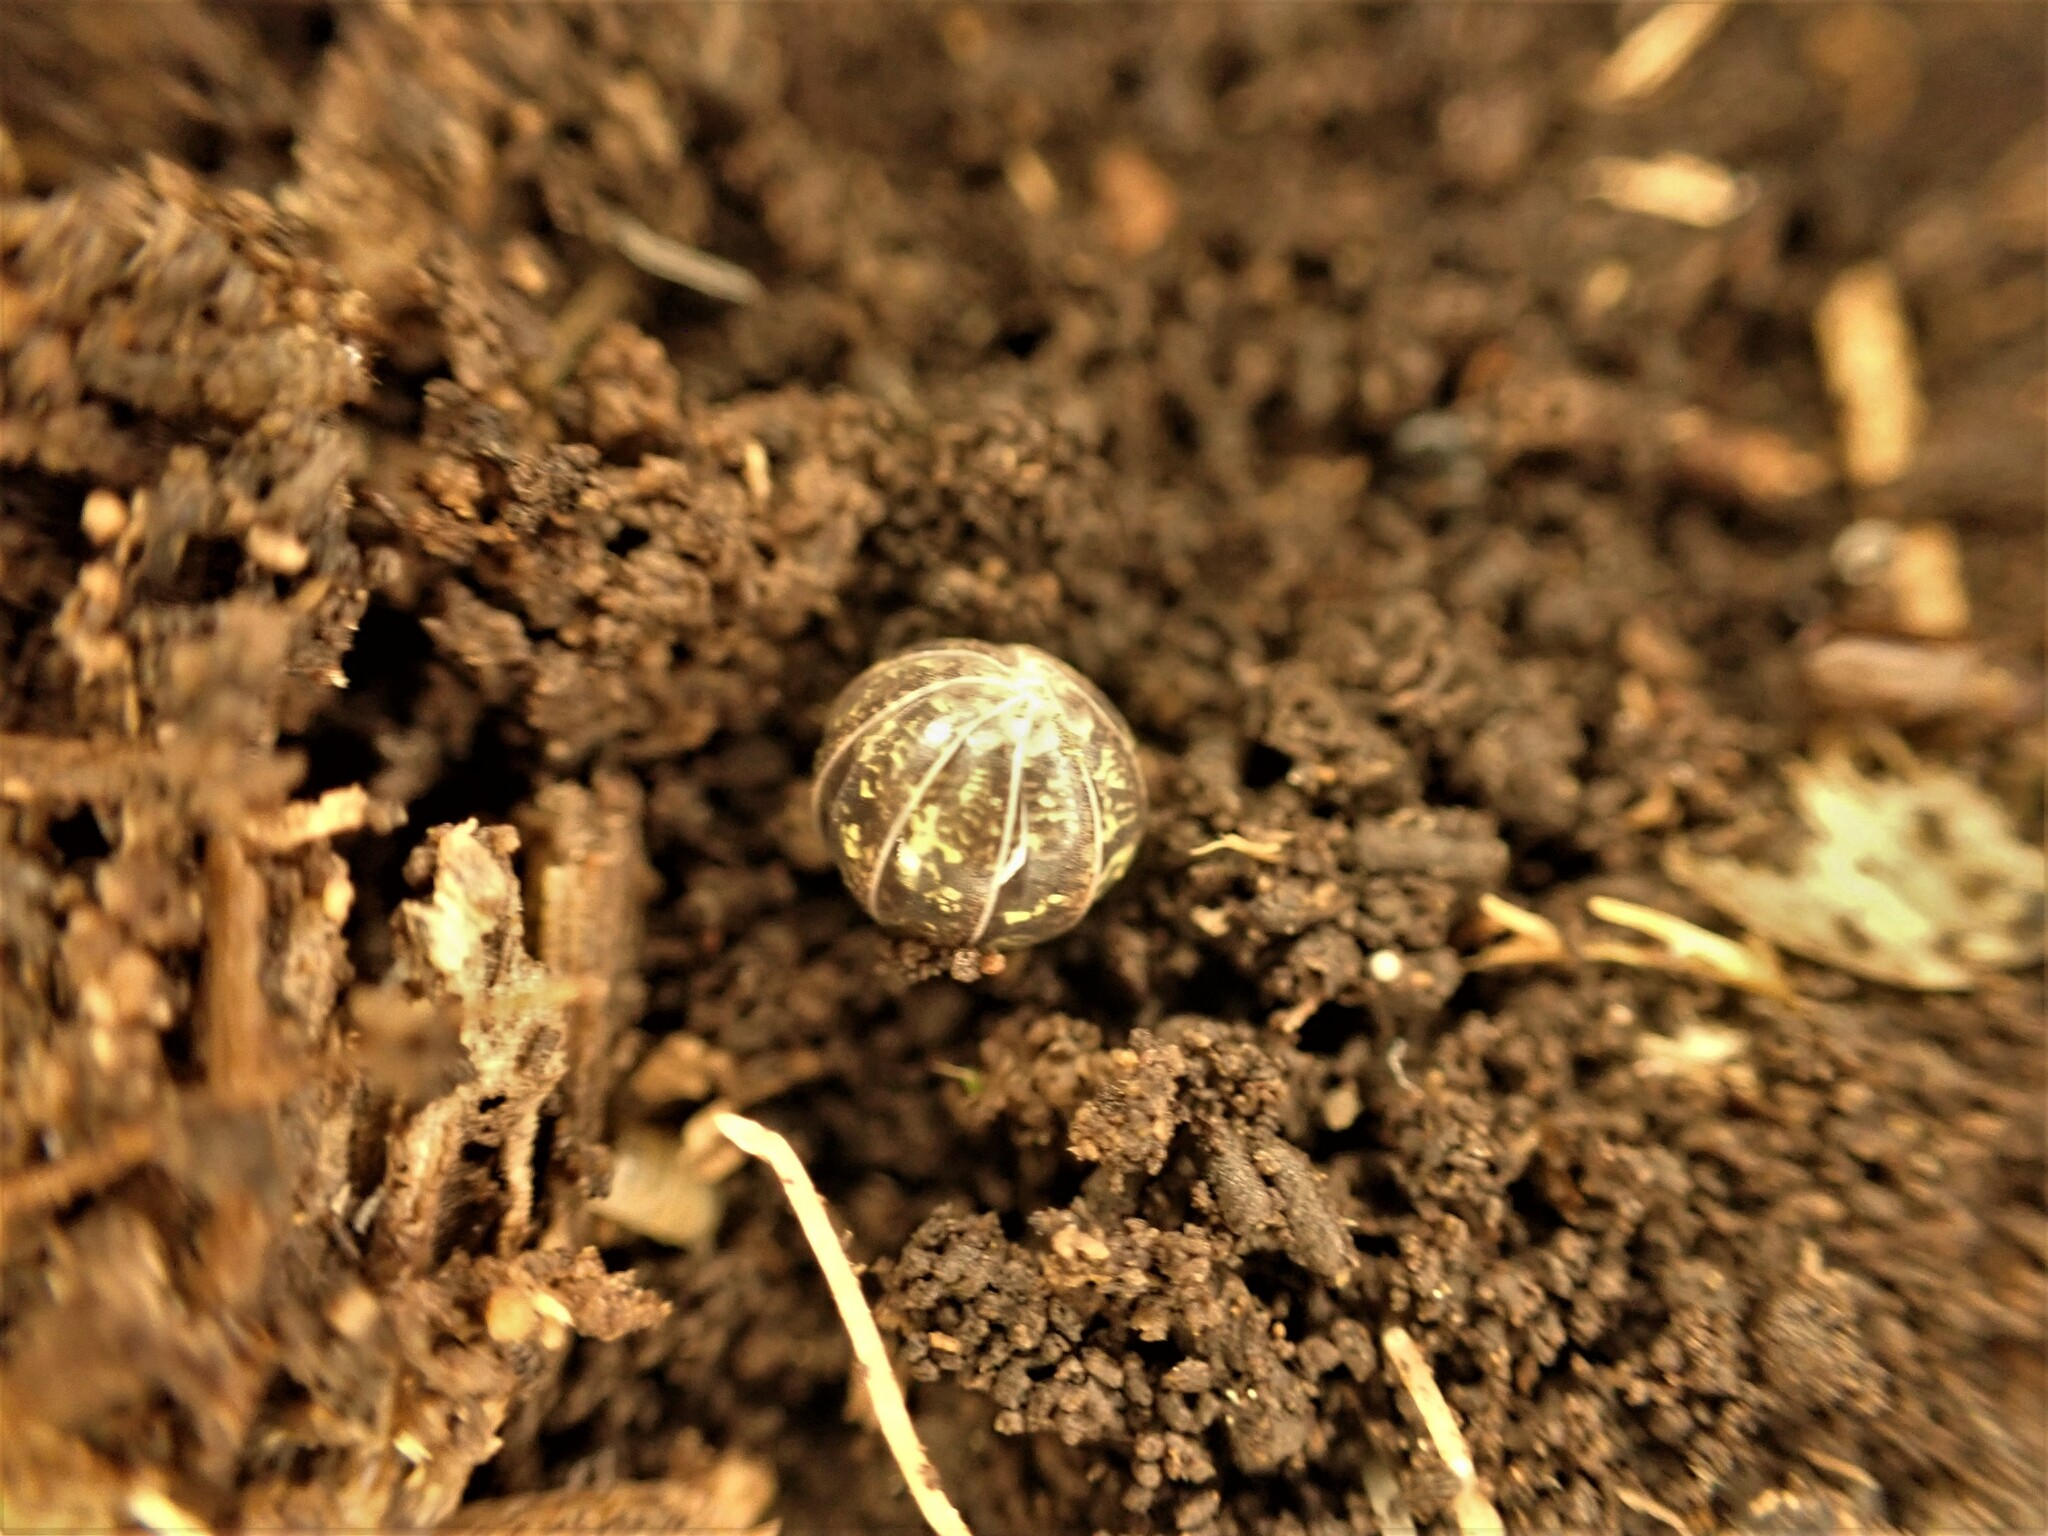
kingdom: Animalia
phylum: Arthropoda
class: Malacostraca
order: Isopoda
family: Armadillidiidae
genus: Armadillidium
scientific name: Armadillidium vulgare
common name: Common pill woodlouse
